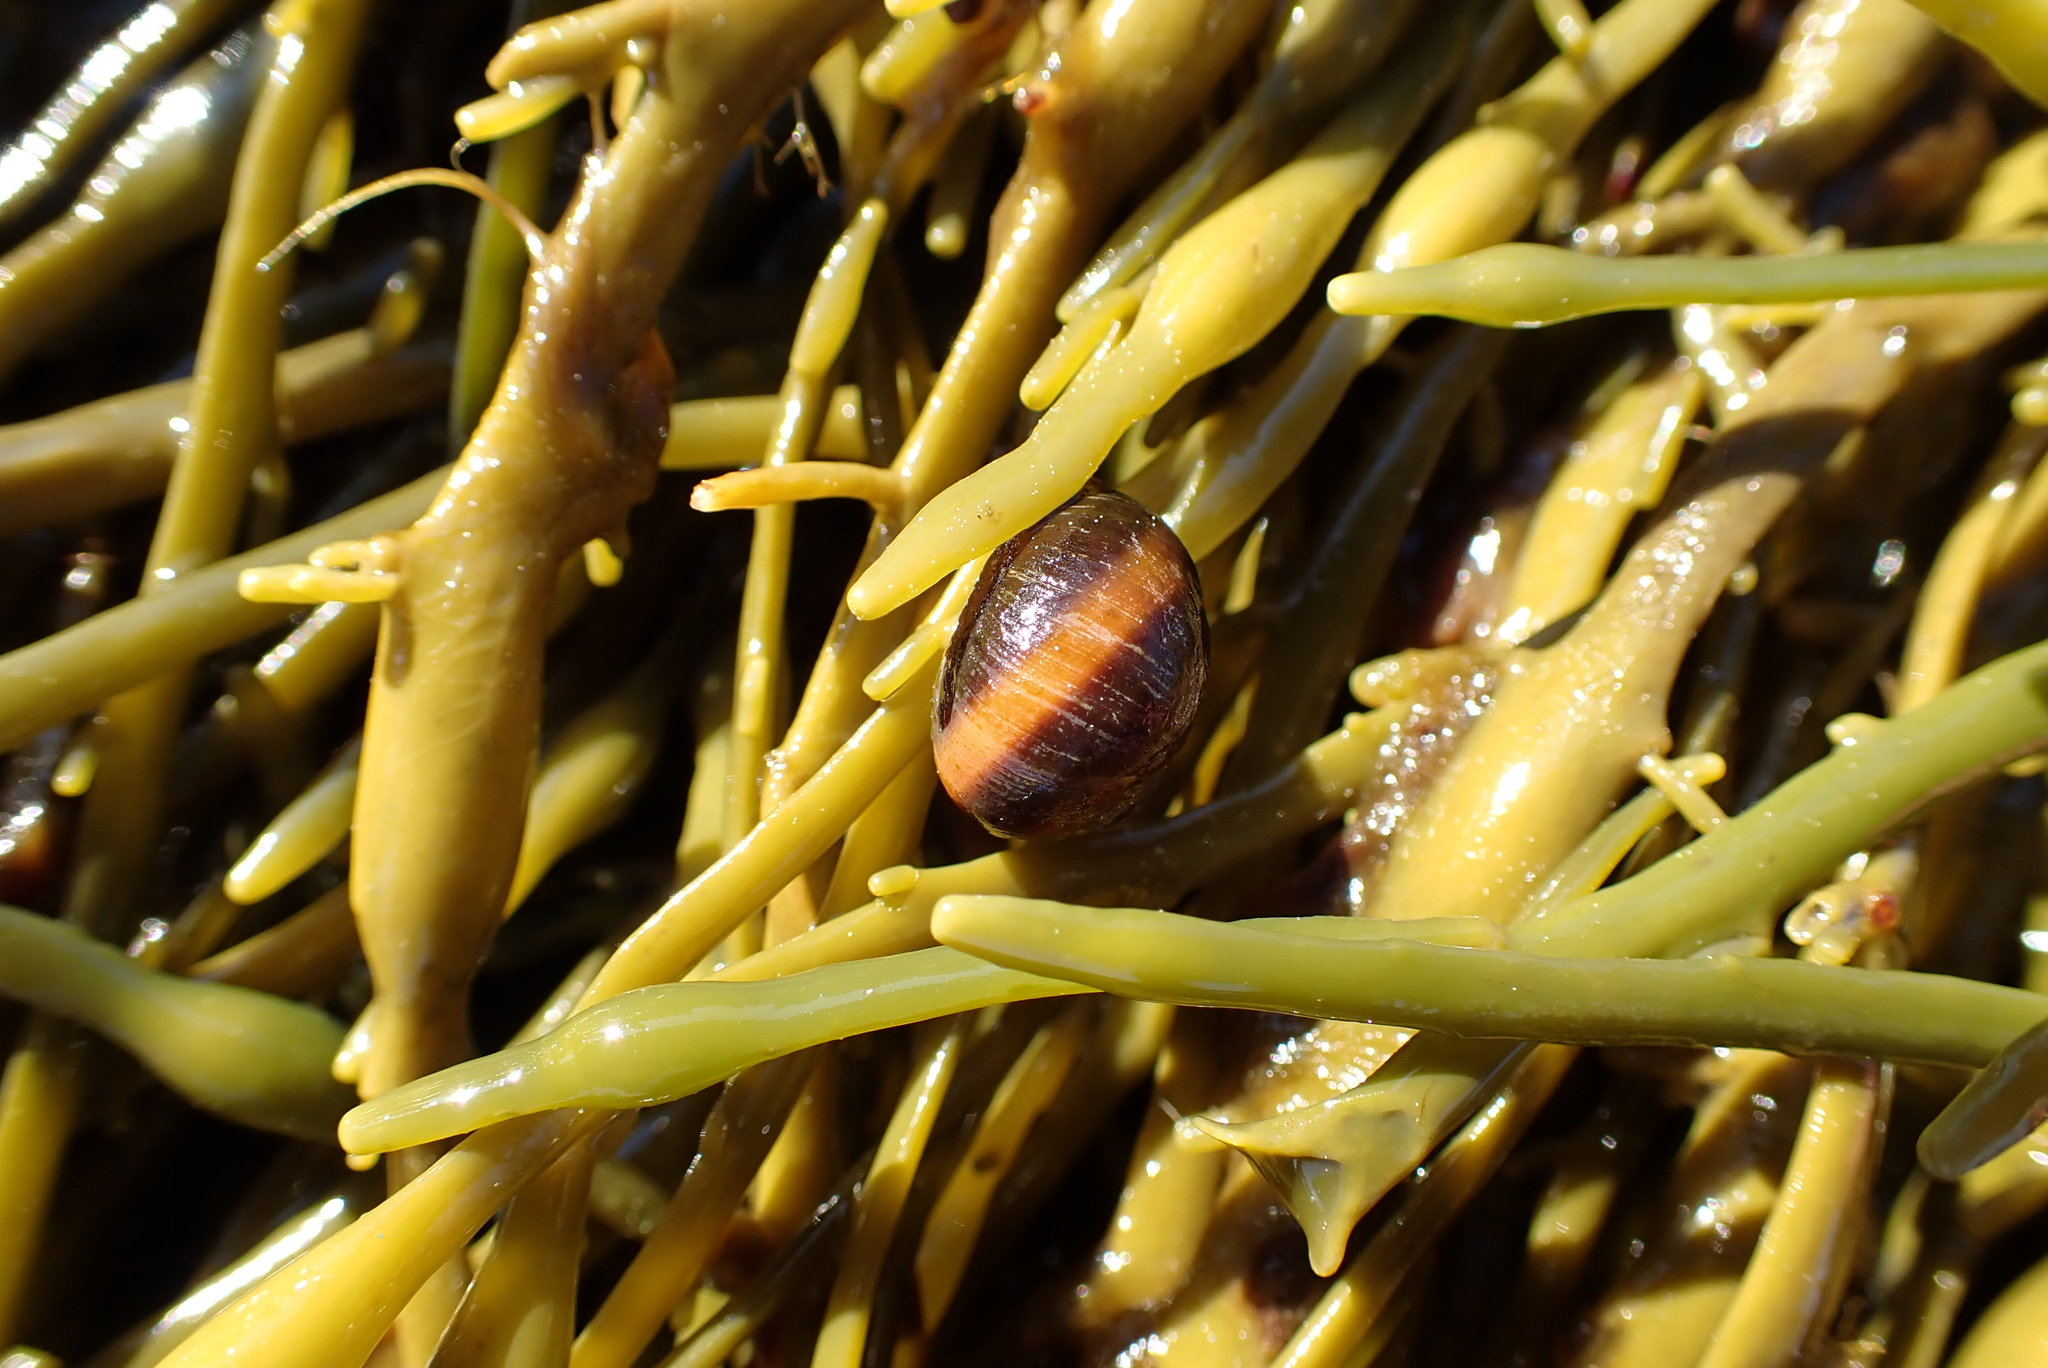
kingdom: Animalia
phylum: Mollusca
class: Gastropoda
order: Littorinimorpha
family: Littorinidae
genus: Littorina
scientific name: Littorina obtusata
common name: Flat periwinkle
